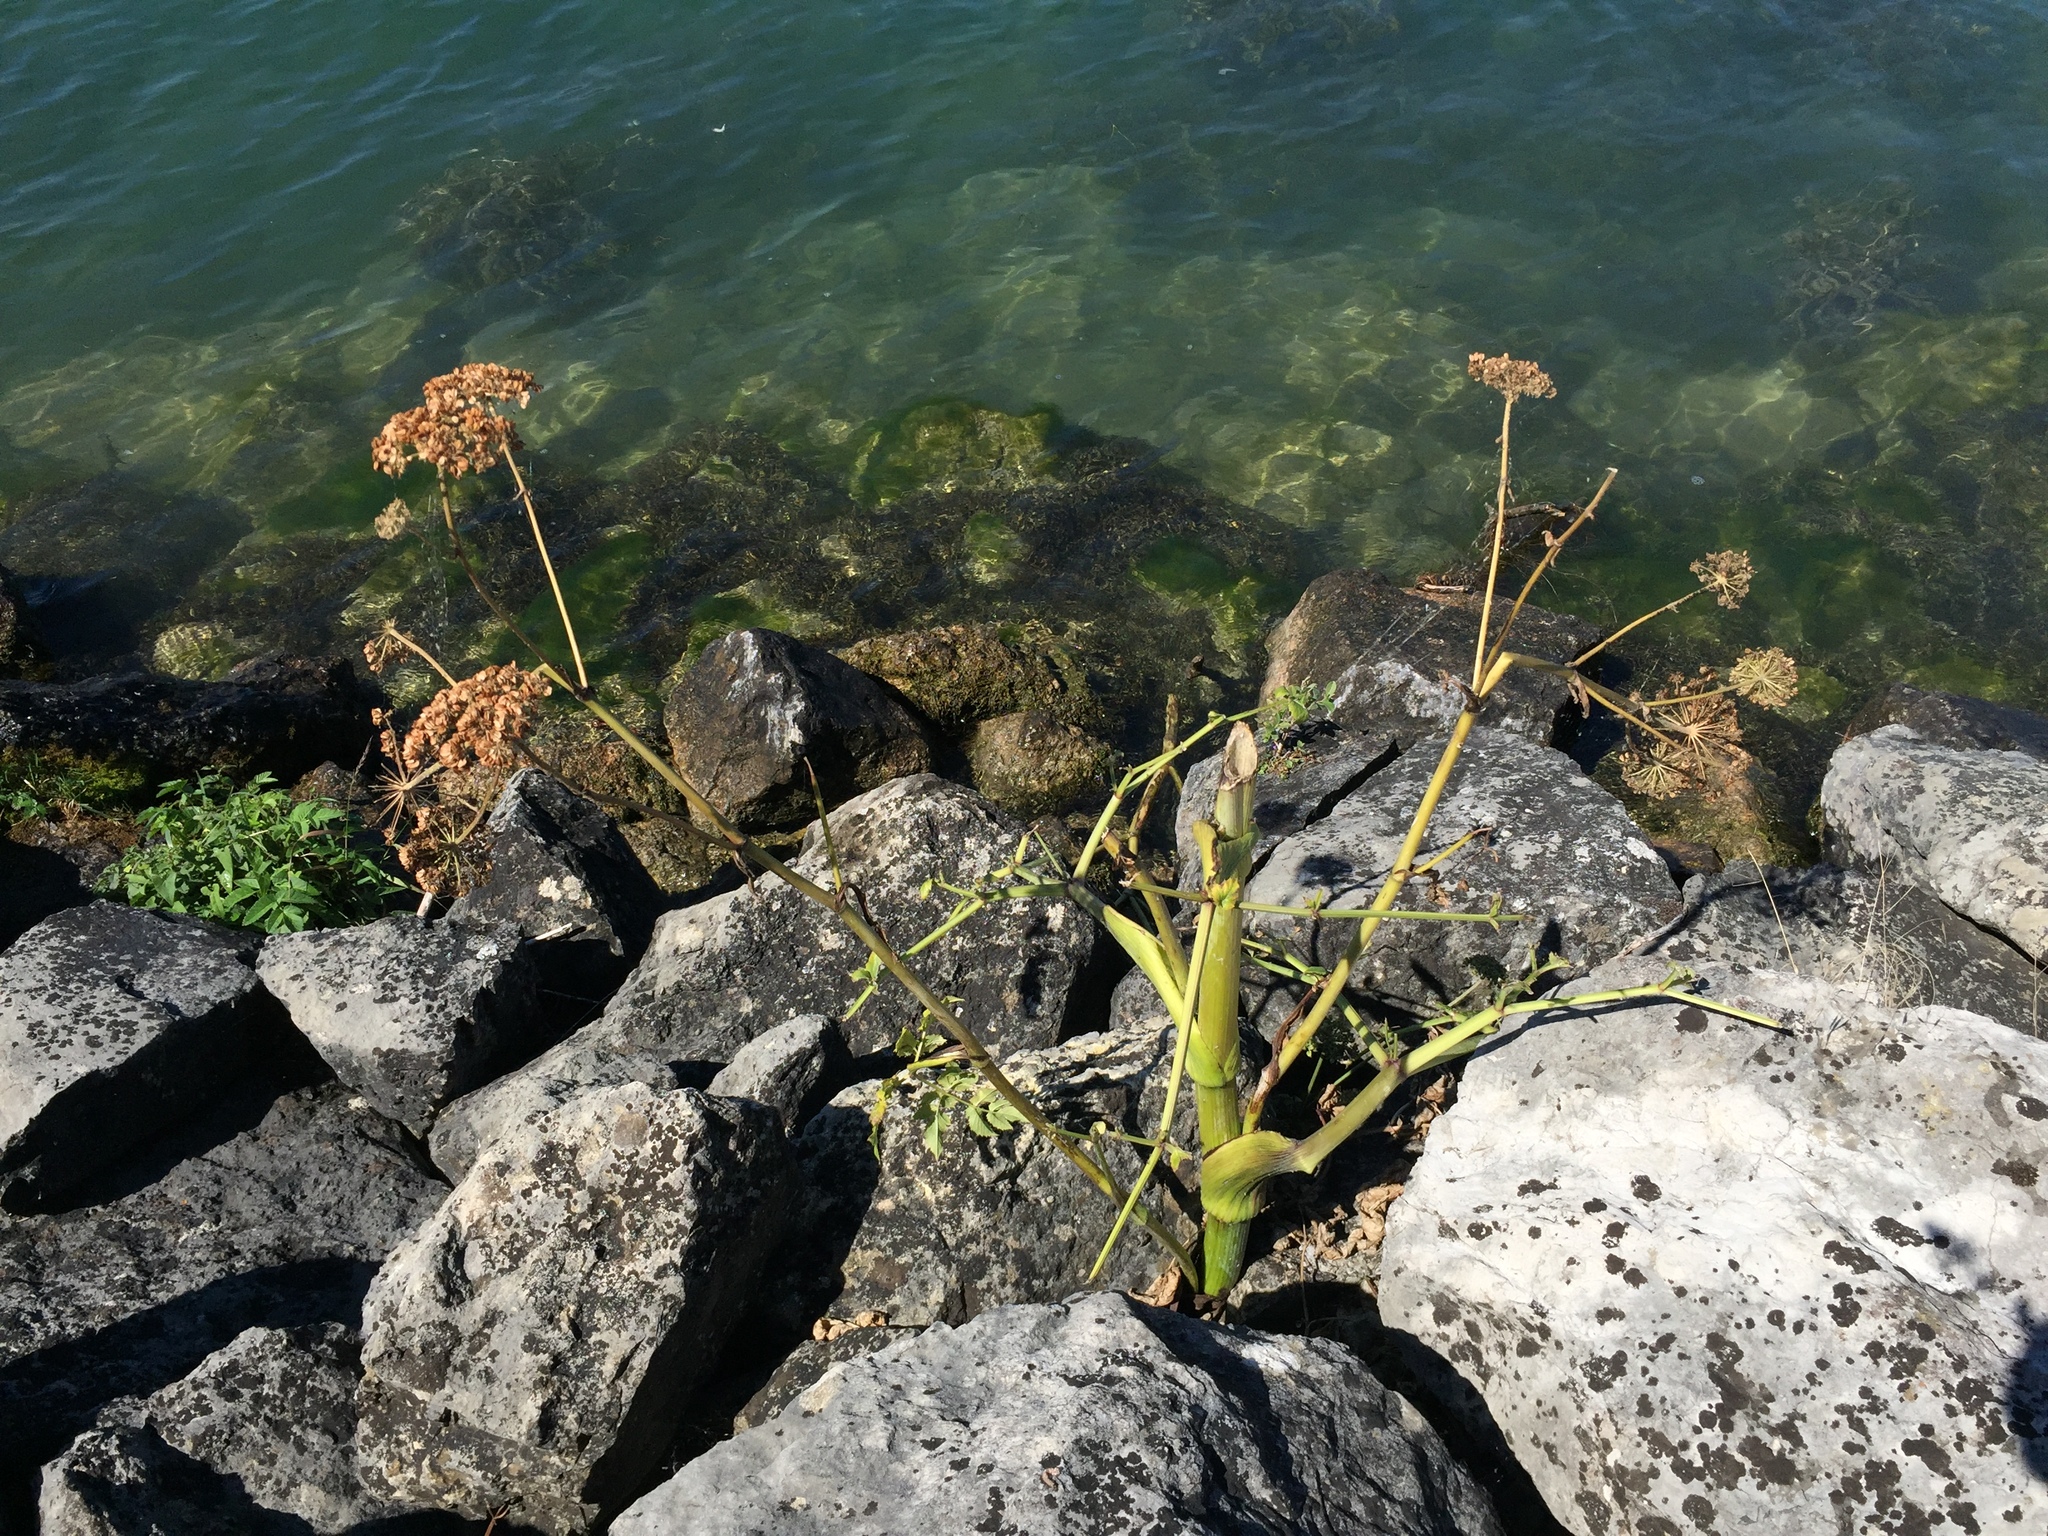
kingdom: Plantae
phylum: Tracheophyta
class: Magnoliopsida
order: Apiales
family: Apiaceae
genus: Angelica
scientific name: Angelica sylvestris
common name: Wild angelica
